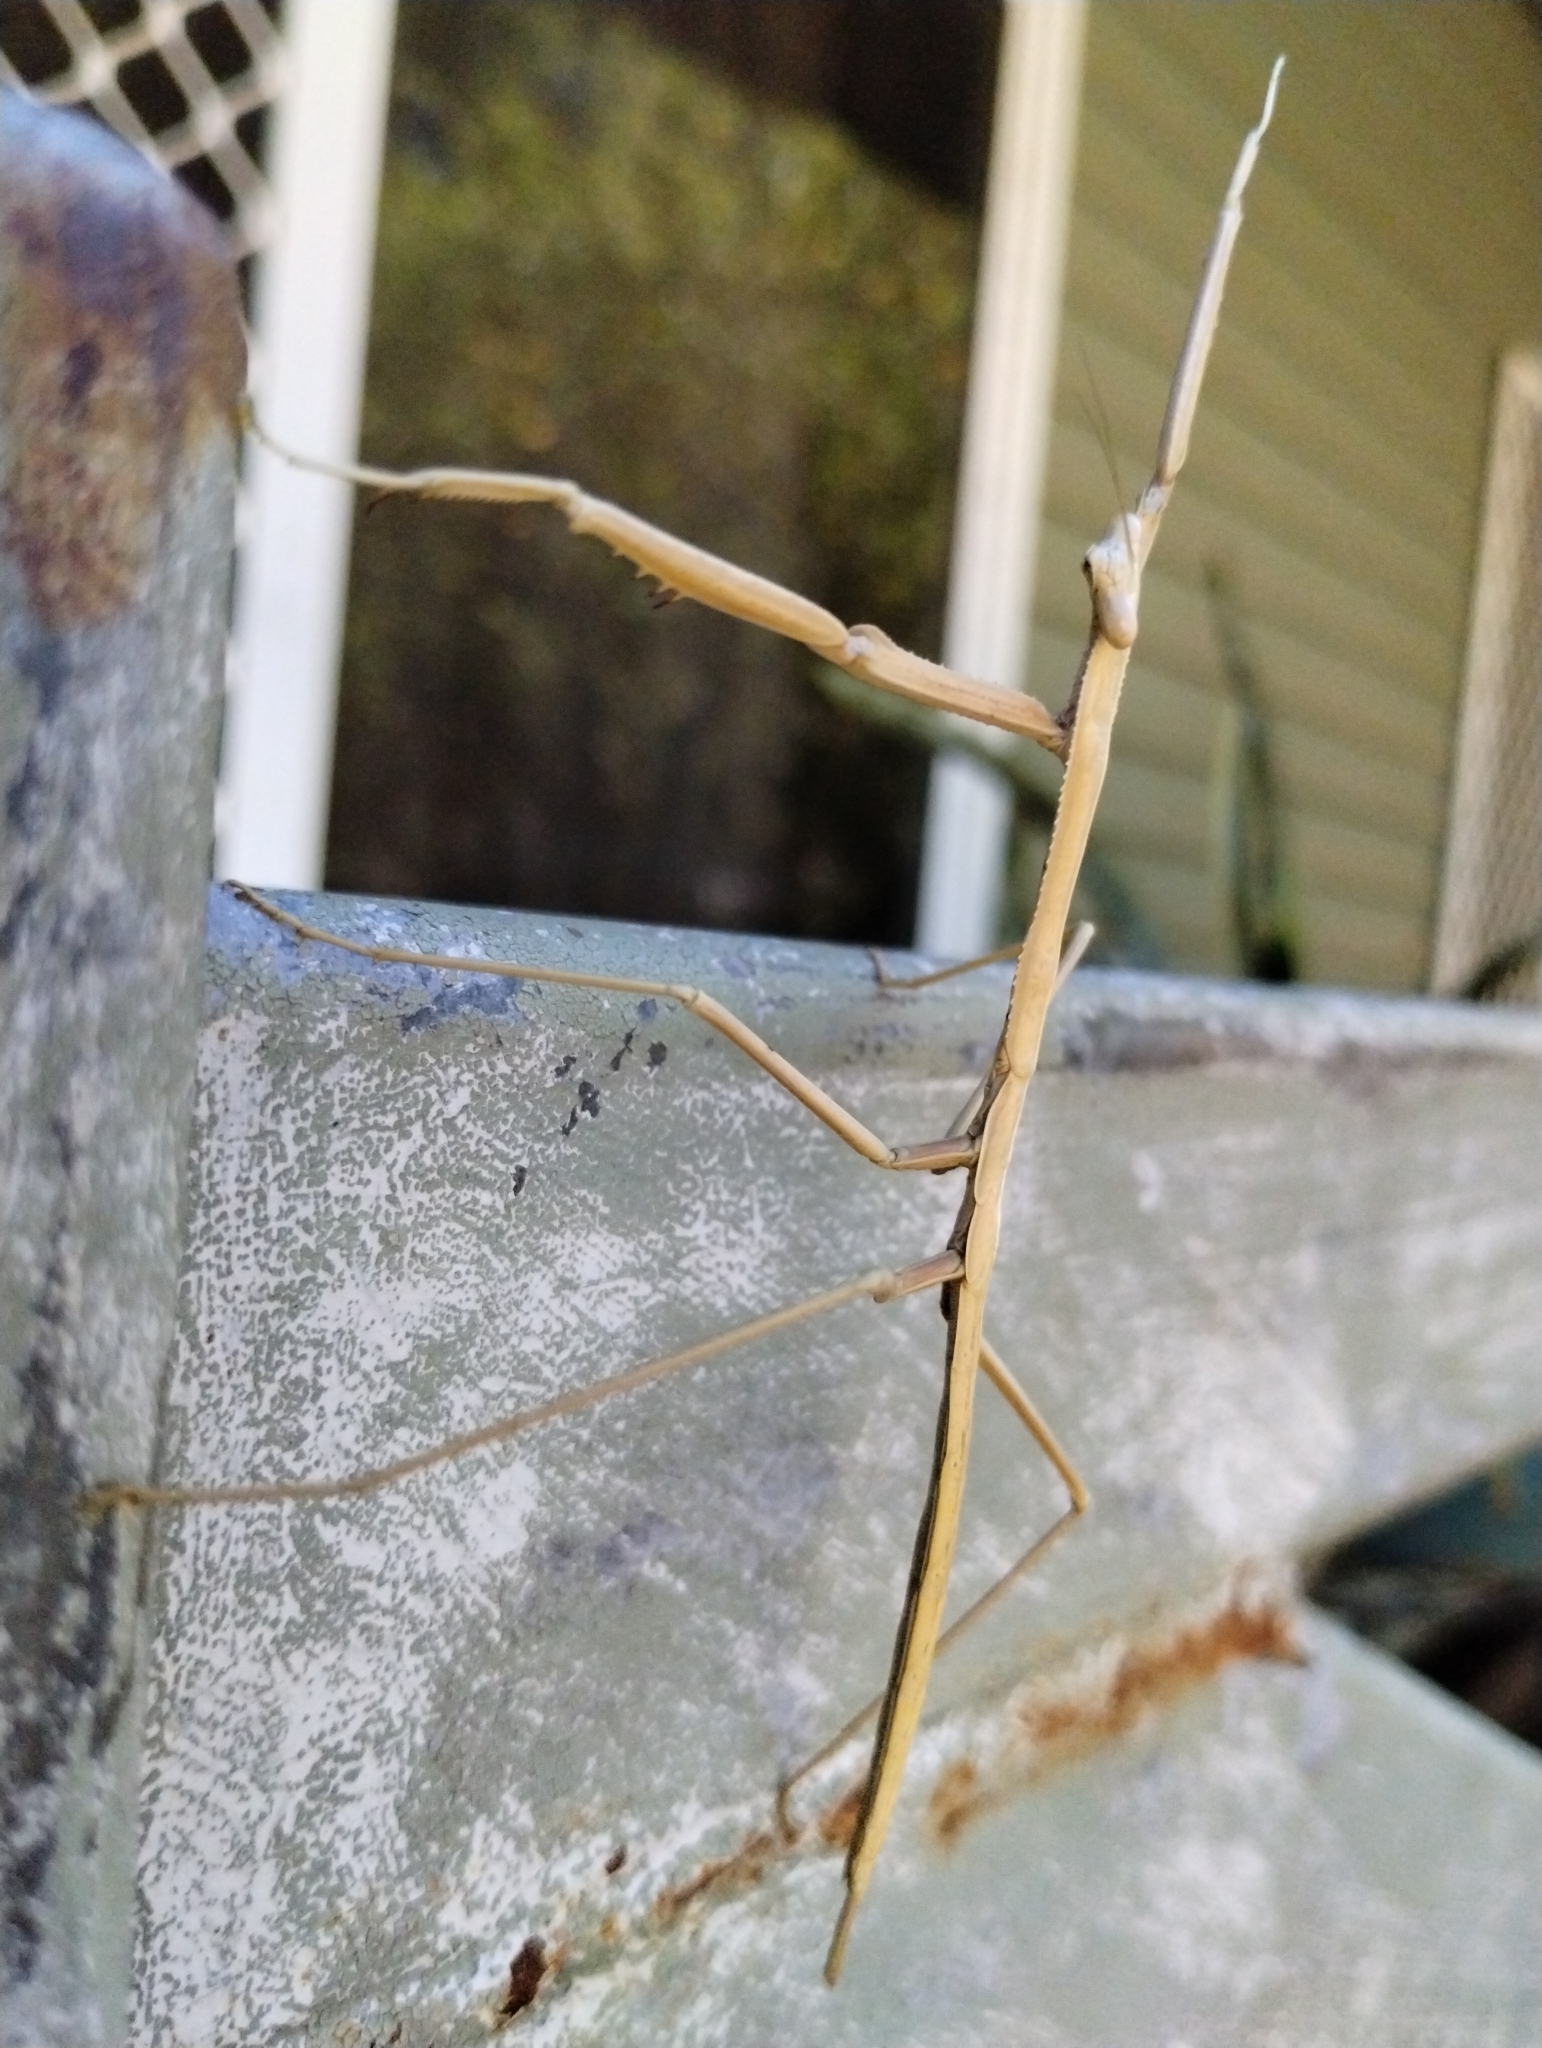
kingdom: Animalia
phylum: Arthropoda
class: Insecta
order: Mantodea
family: Mantidae
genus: Archimantis
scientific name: Archimantis monstrosa
